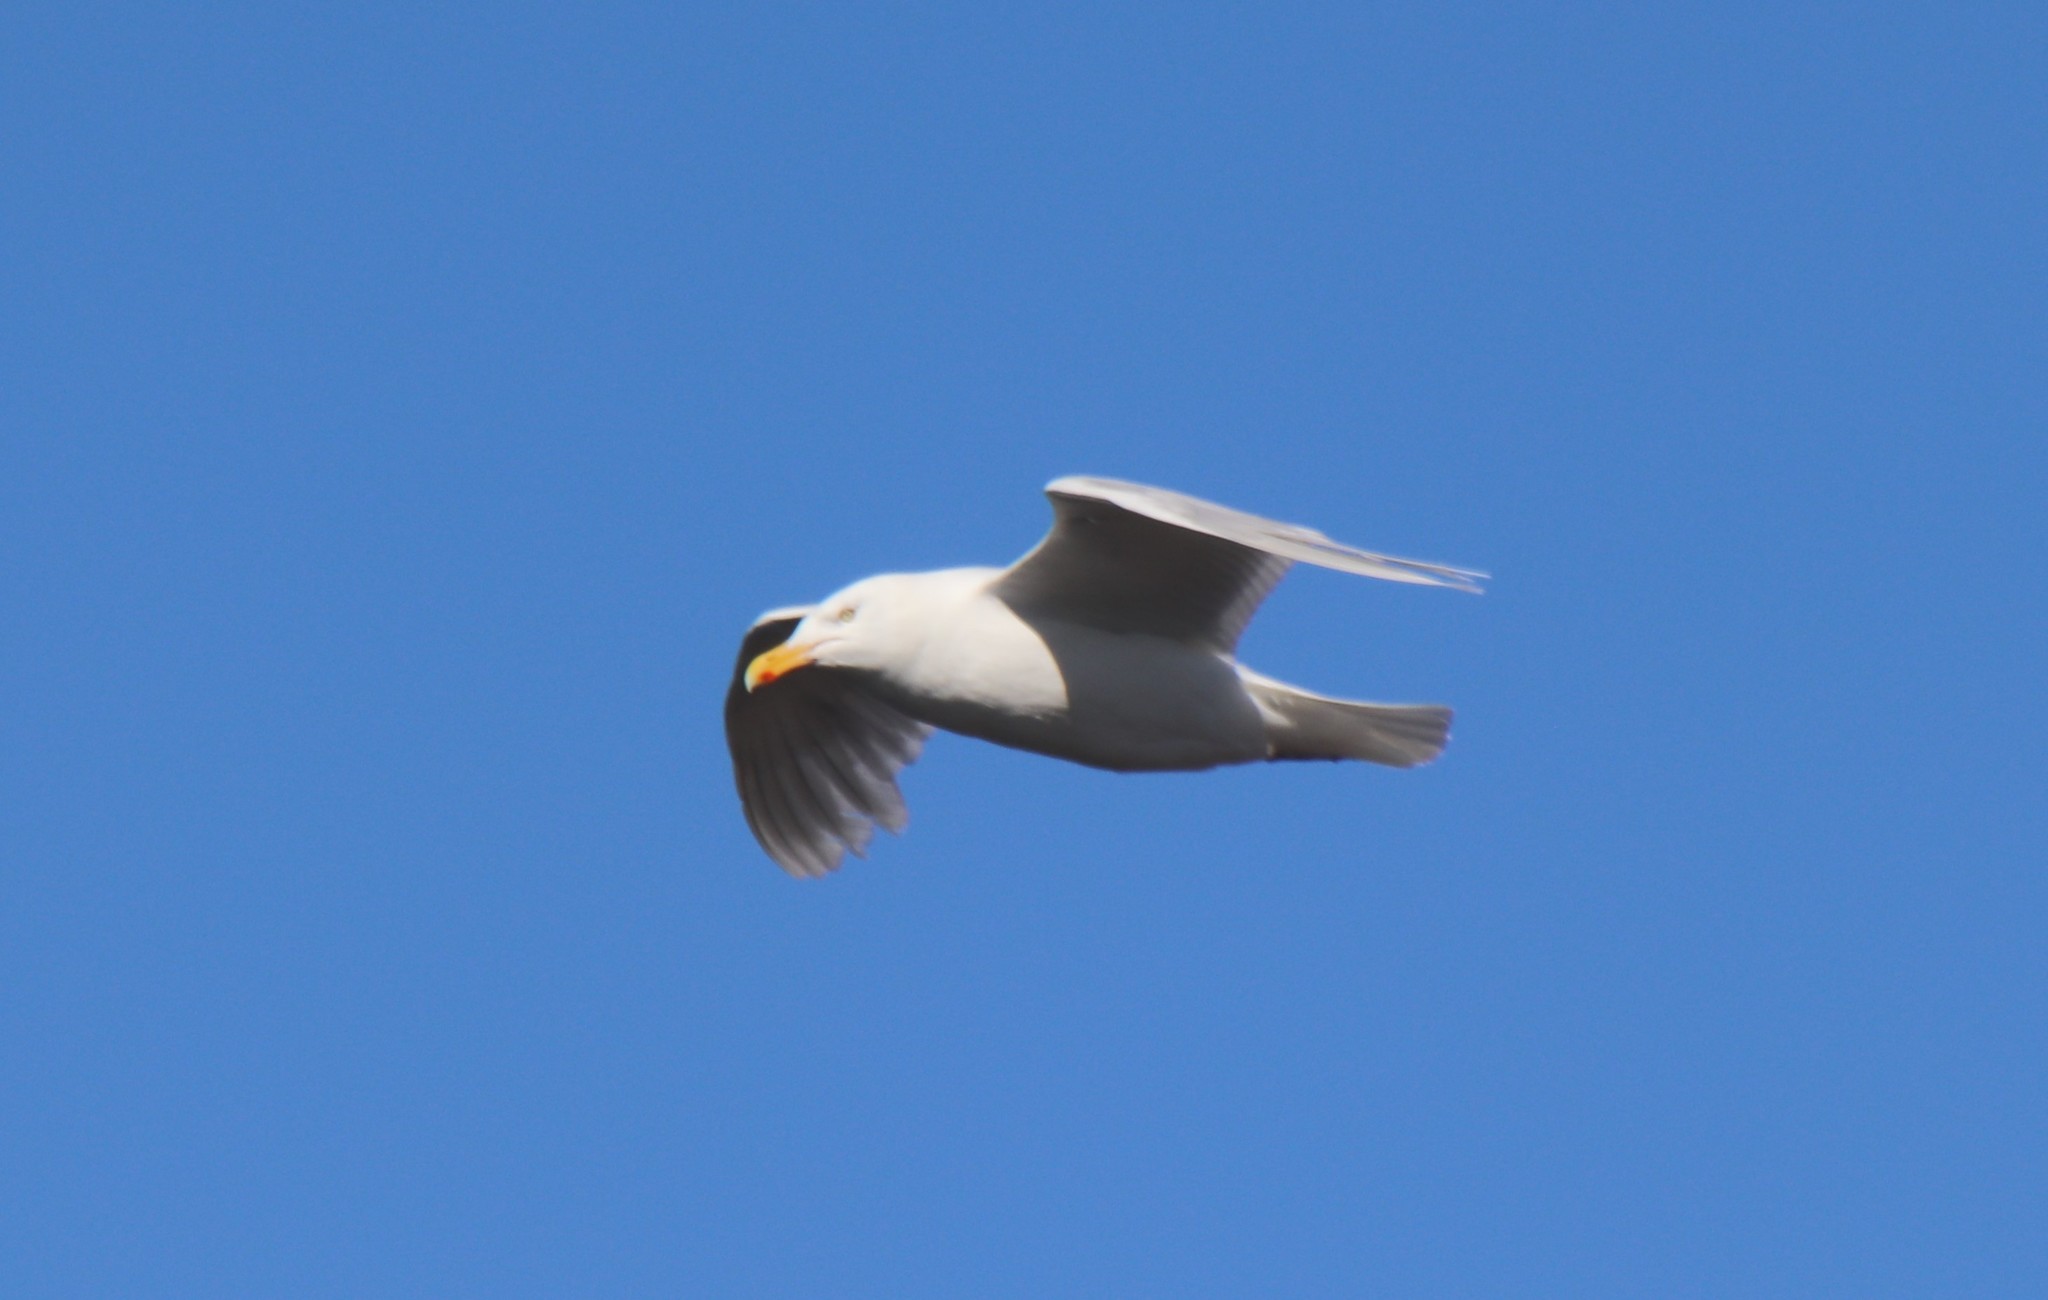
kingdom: Animalia
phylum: Chordata
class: Aves
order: Charadriiformes
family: Laridae
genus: Larus
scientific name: Larus hyperboreus
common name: Glaucous gull
